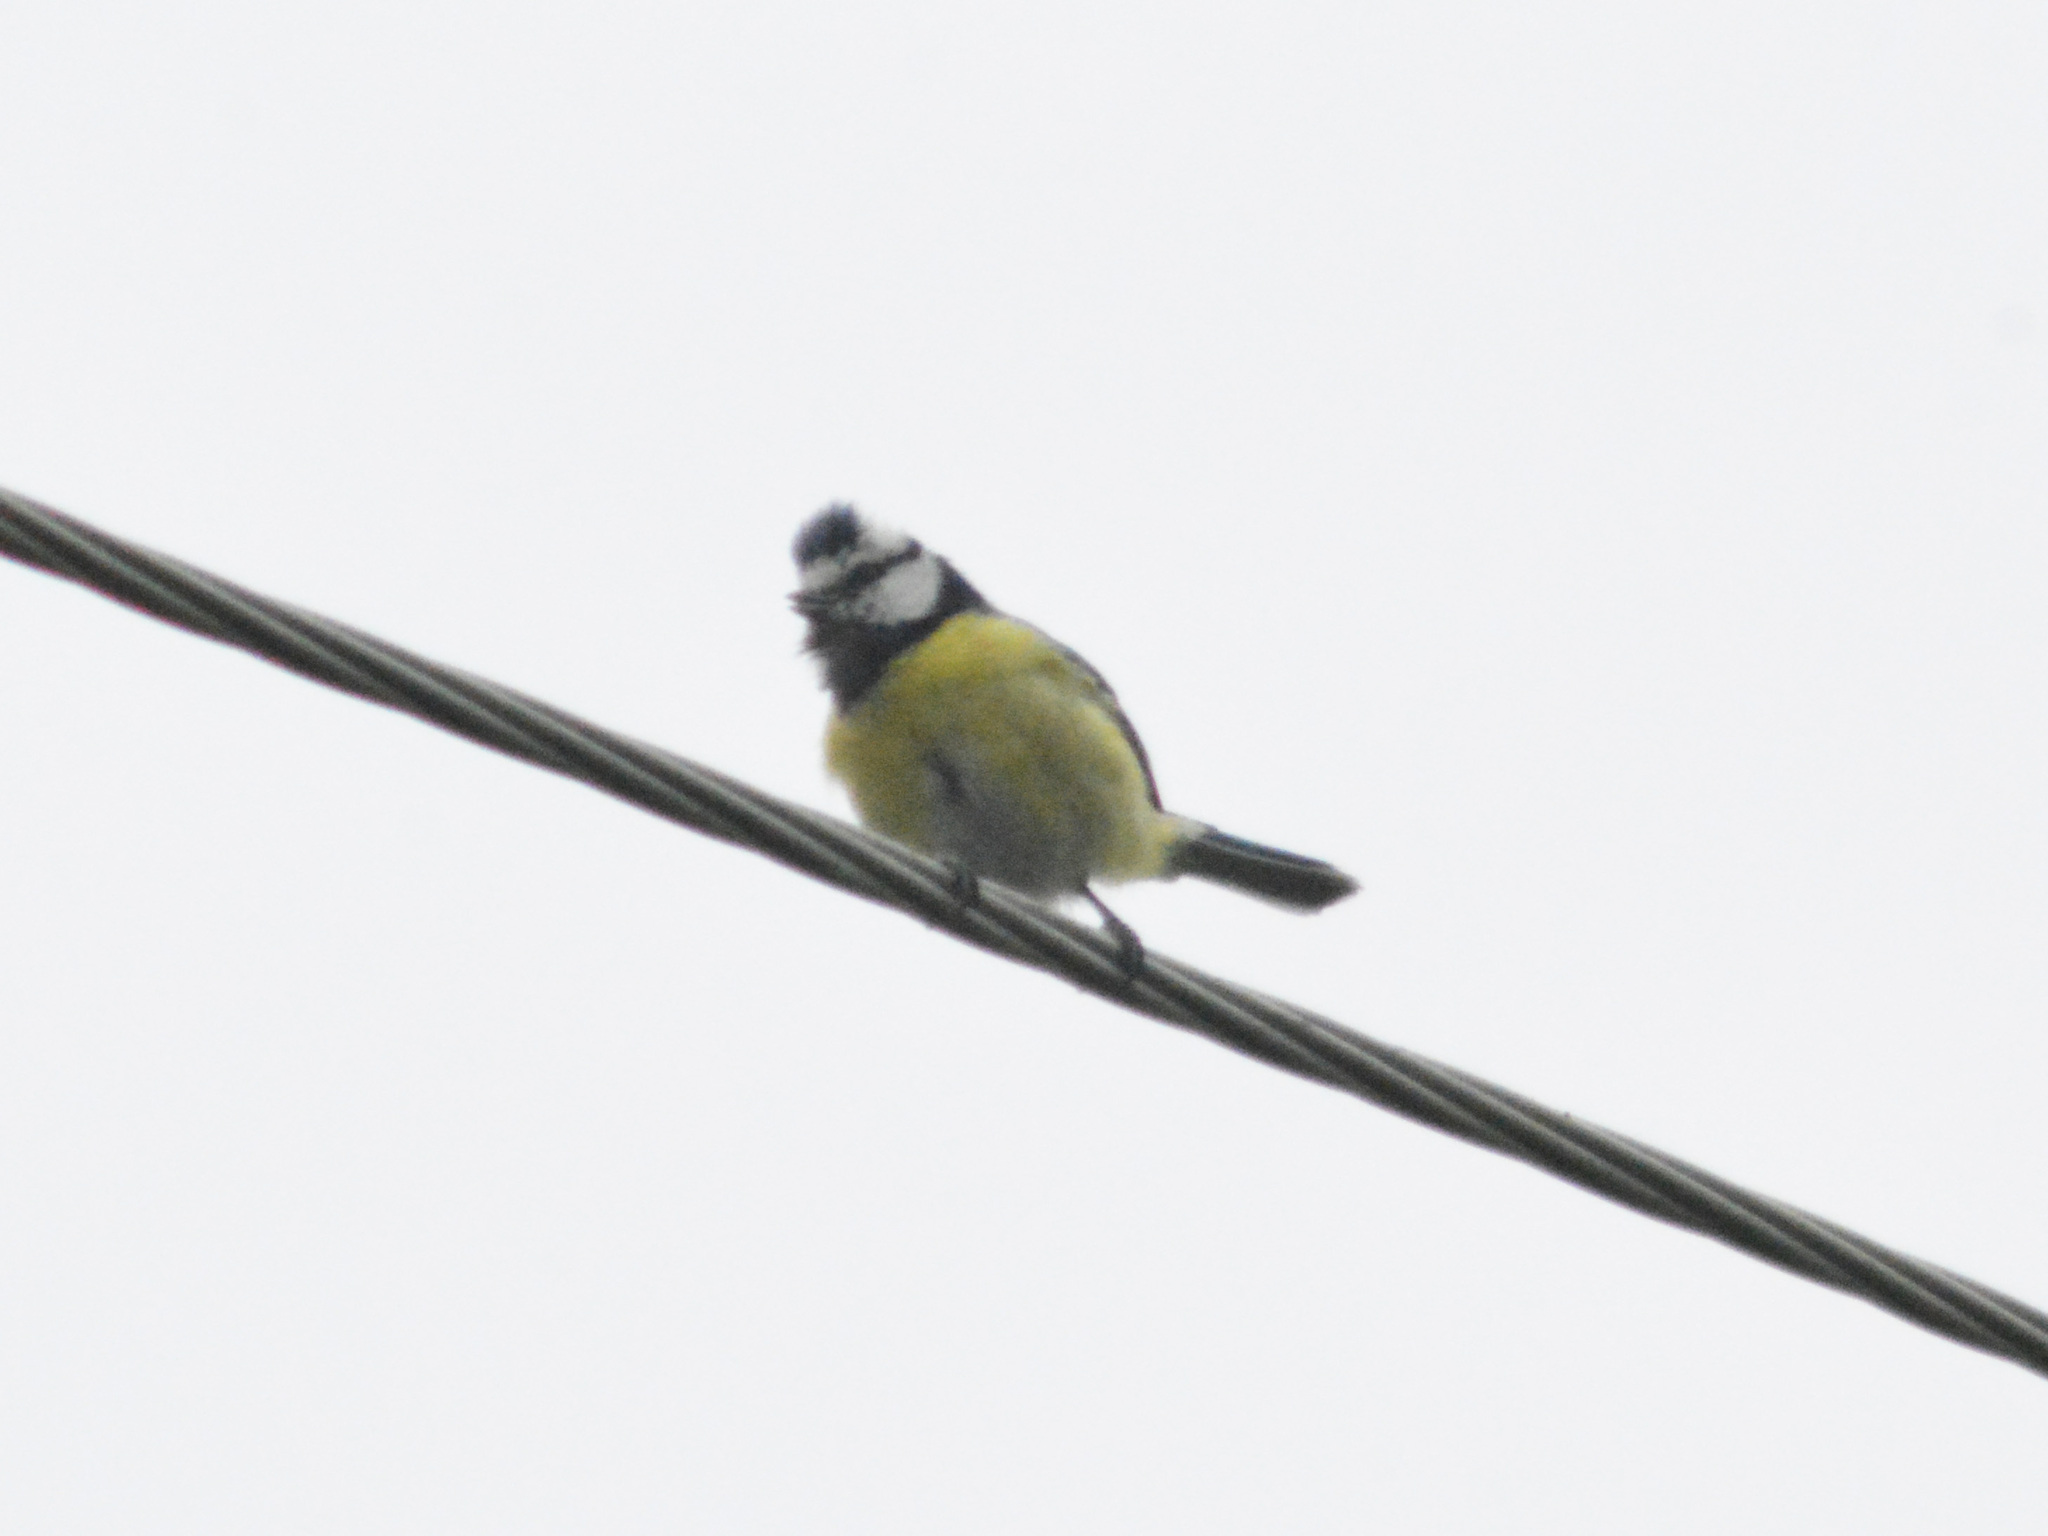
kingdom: Animalia
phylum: Chordata
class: Aves
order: Passeriformes
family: Paridae
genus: Cyanistes
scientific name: Cyanistes caeruleus
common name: Eurasian blue tit
